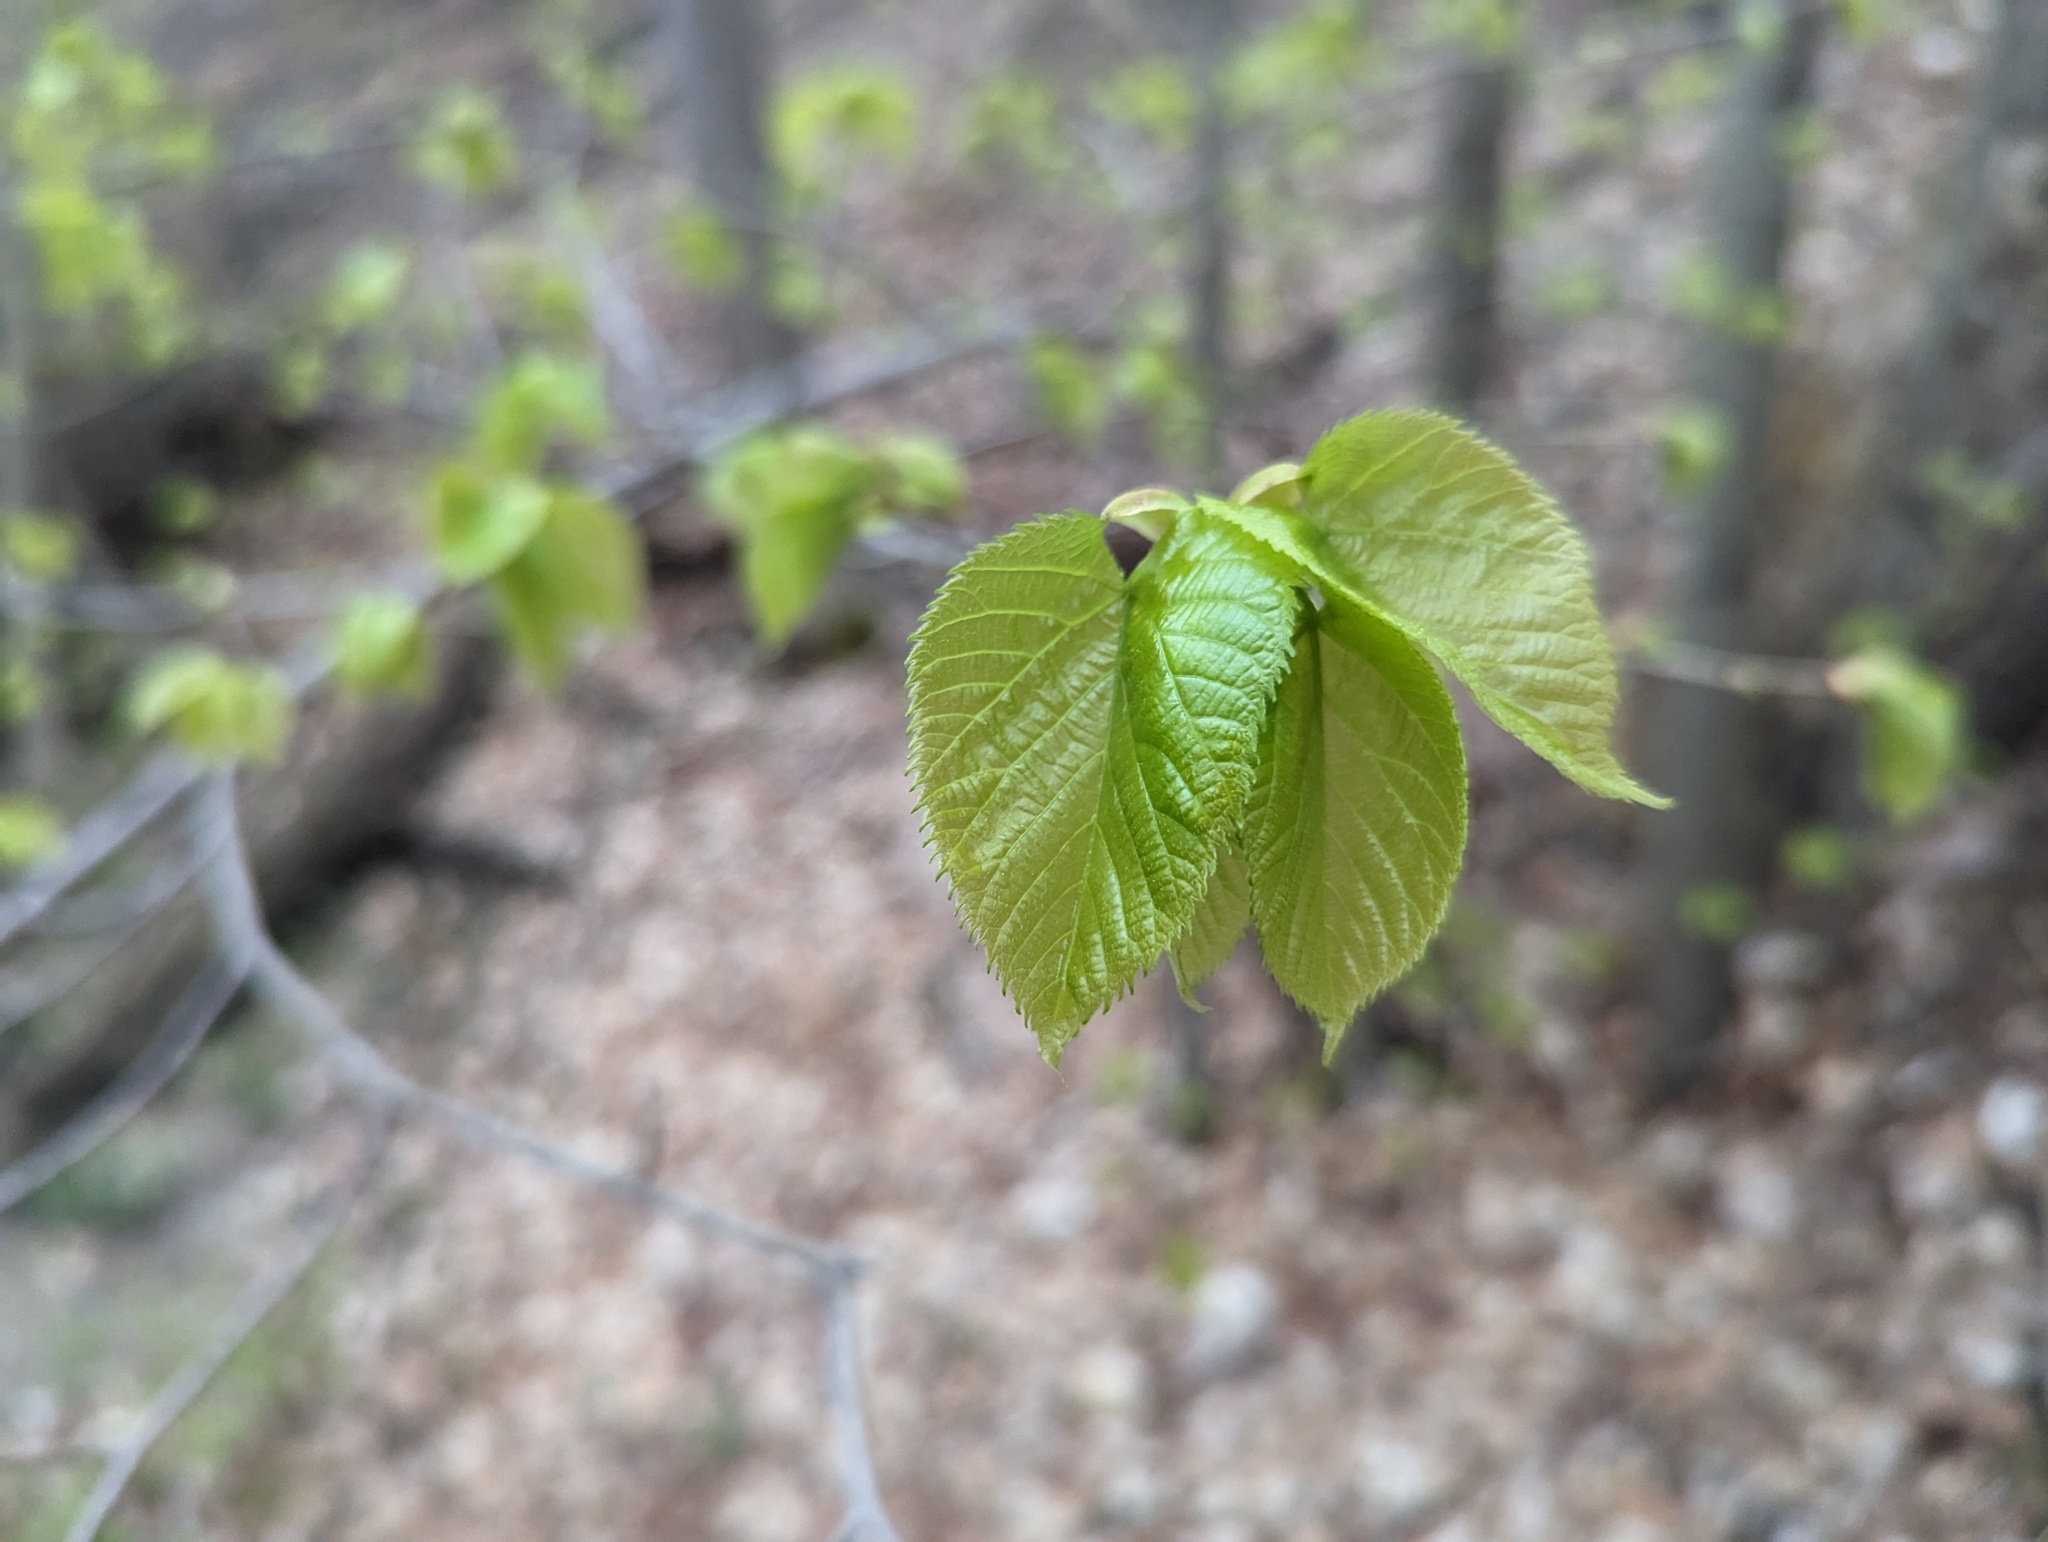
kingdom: Plantae
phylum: Tracheophyta
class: Magnoliopsida
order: Malvales
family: Malvaceae
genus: Tilia
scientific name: Tilia americana
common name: Basswood
